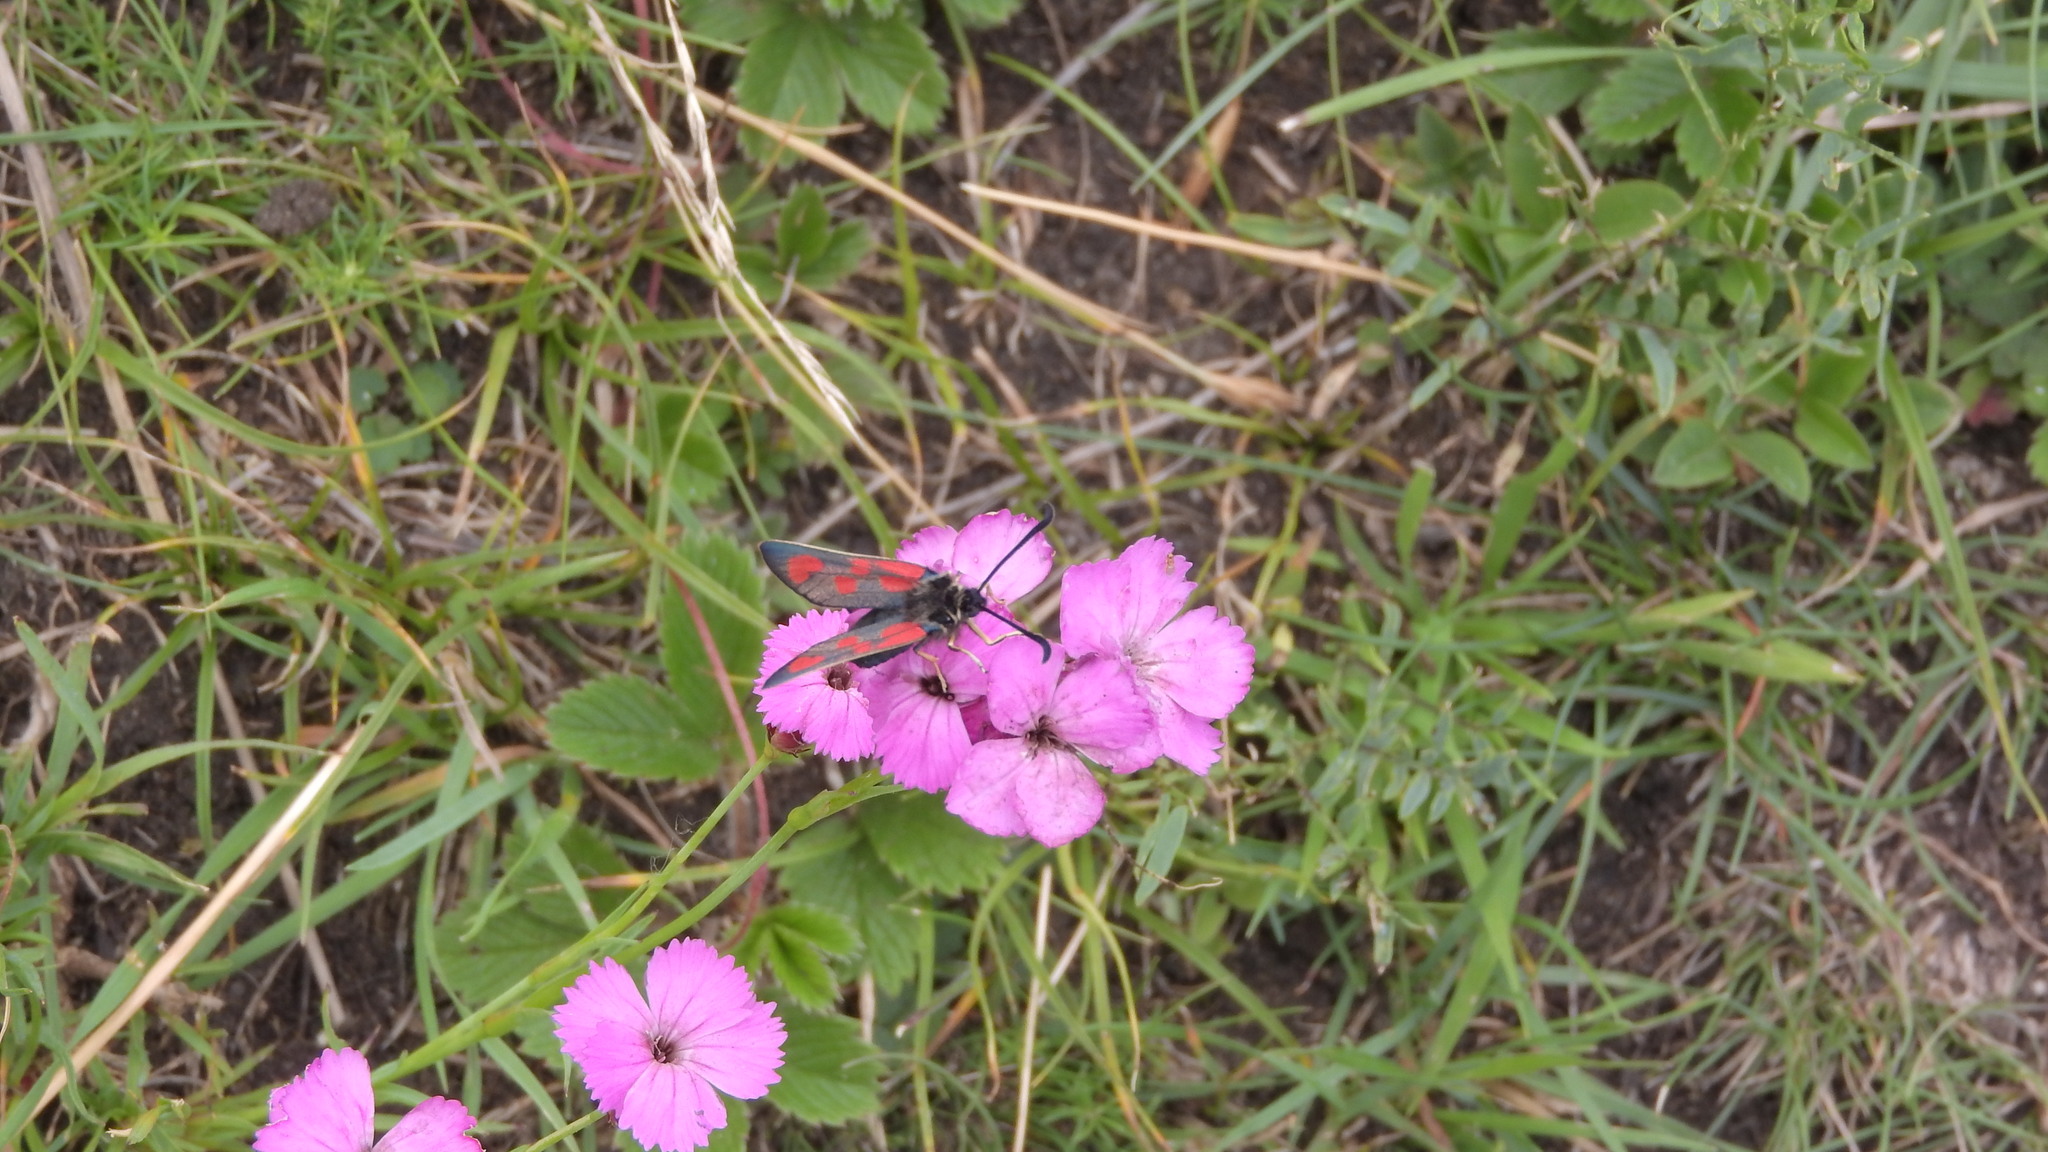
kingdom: Animalia
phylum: Arthropoda
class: Insecta
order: Lepidoptera
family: Zygaenidae
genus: Zygaena
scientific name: Zygaena loti
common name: Slender scotch burnet
